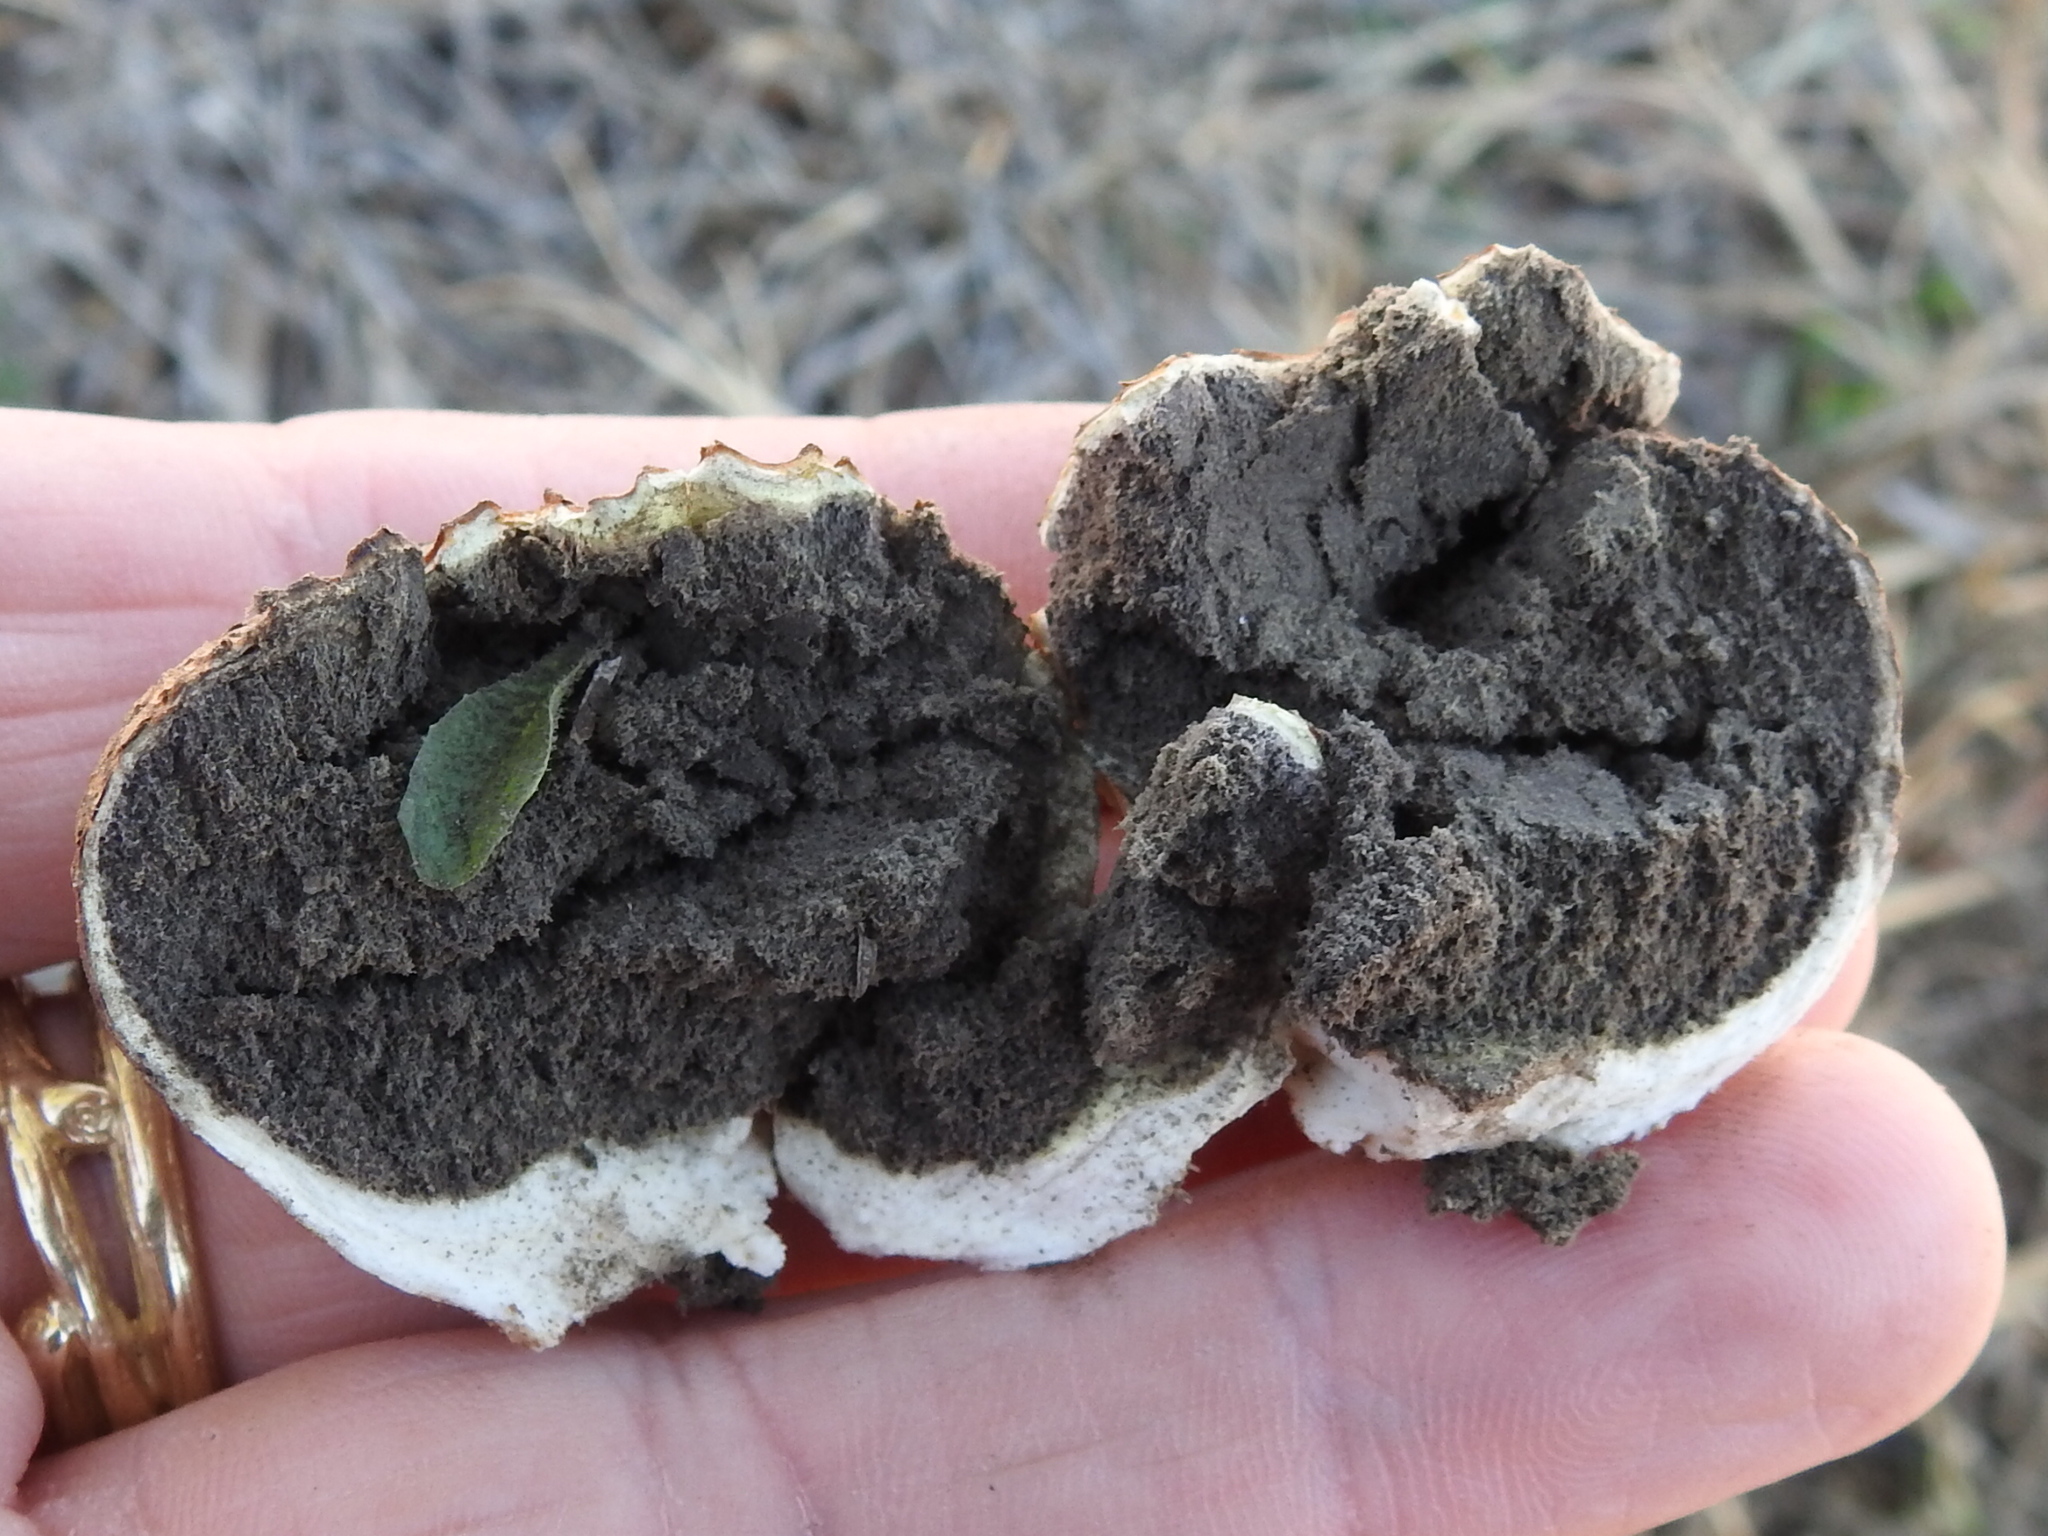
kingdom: Fungi
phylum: Basidiomycota
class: Agaricomycetes
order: Boletales
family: Sclerodermataceae
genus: Scleroderma
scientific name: Scleroderma texense
